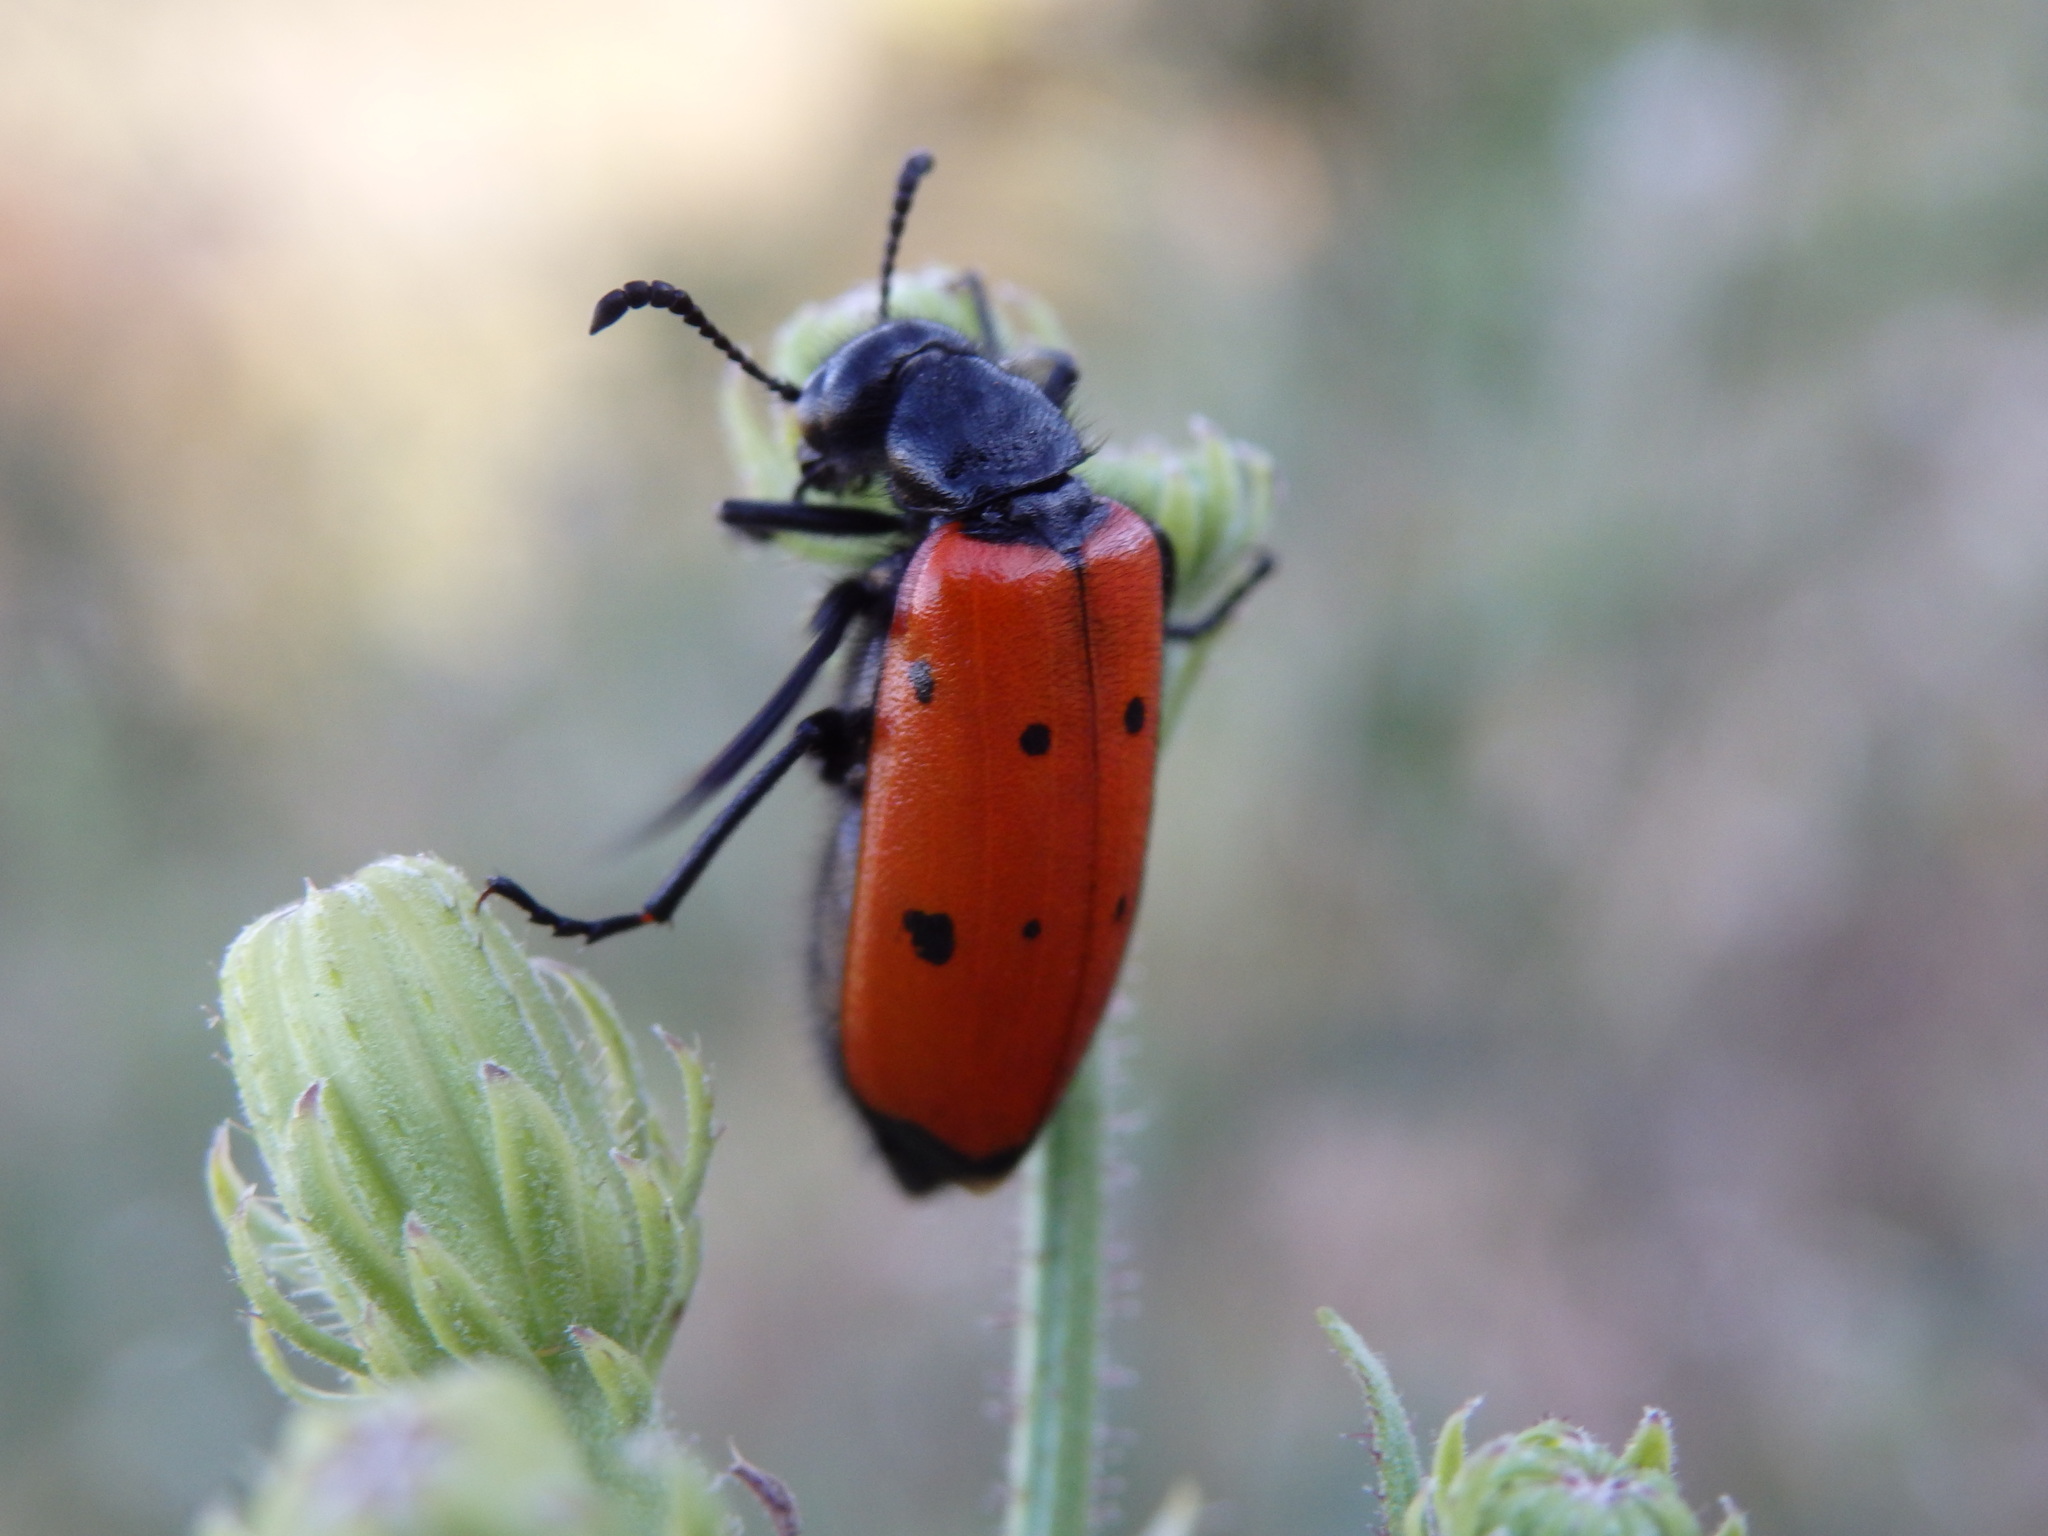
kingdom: Animalia
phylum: Arthropoda
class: Insecta
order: Coleoptera
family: Meloidae
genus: Mylabris
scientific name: Mylabris quadripunctata
